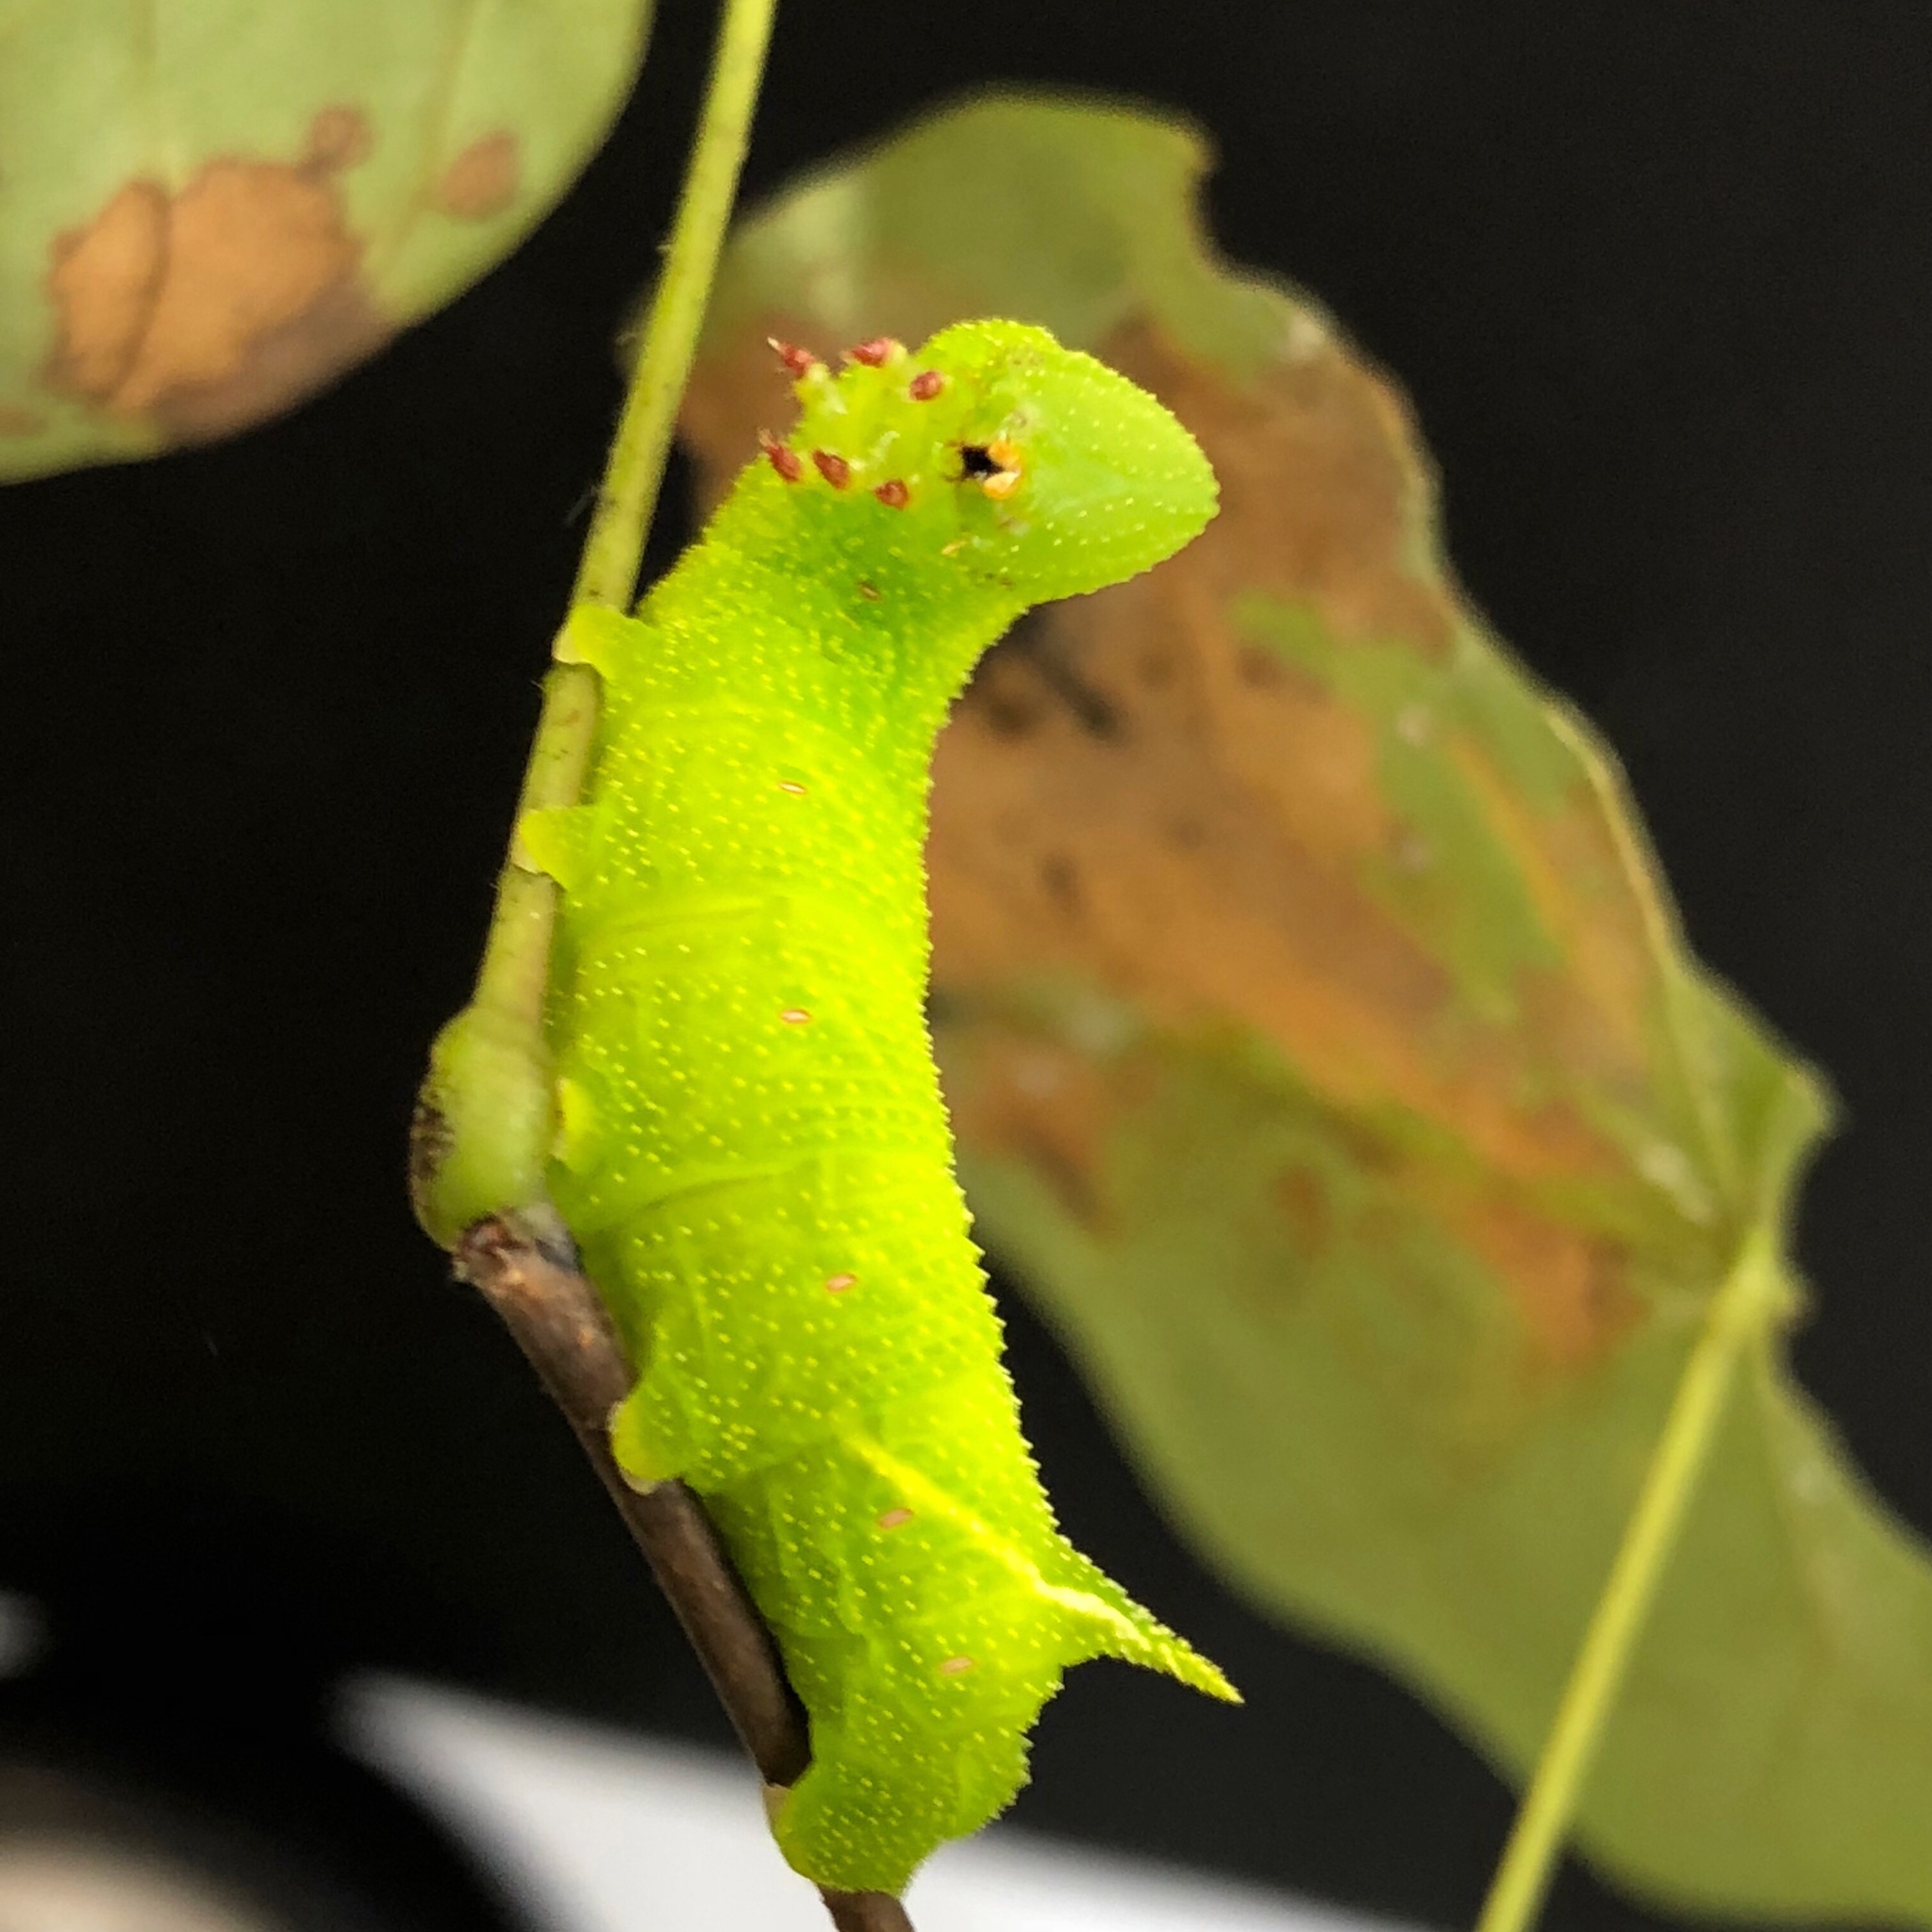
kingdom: Animalia
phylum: Arthropoda
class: Insecta
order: Lepidoptera
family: Sphingidae
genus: Paonias
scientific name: Paonias myops
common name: Small-eyed sphinx
